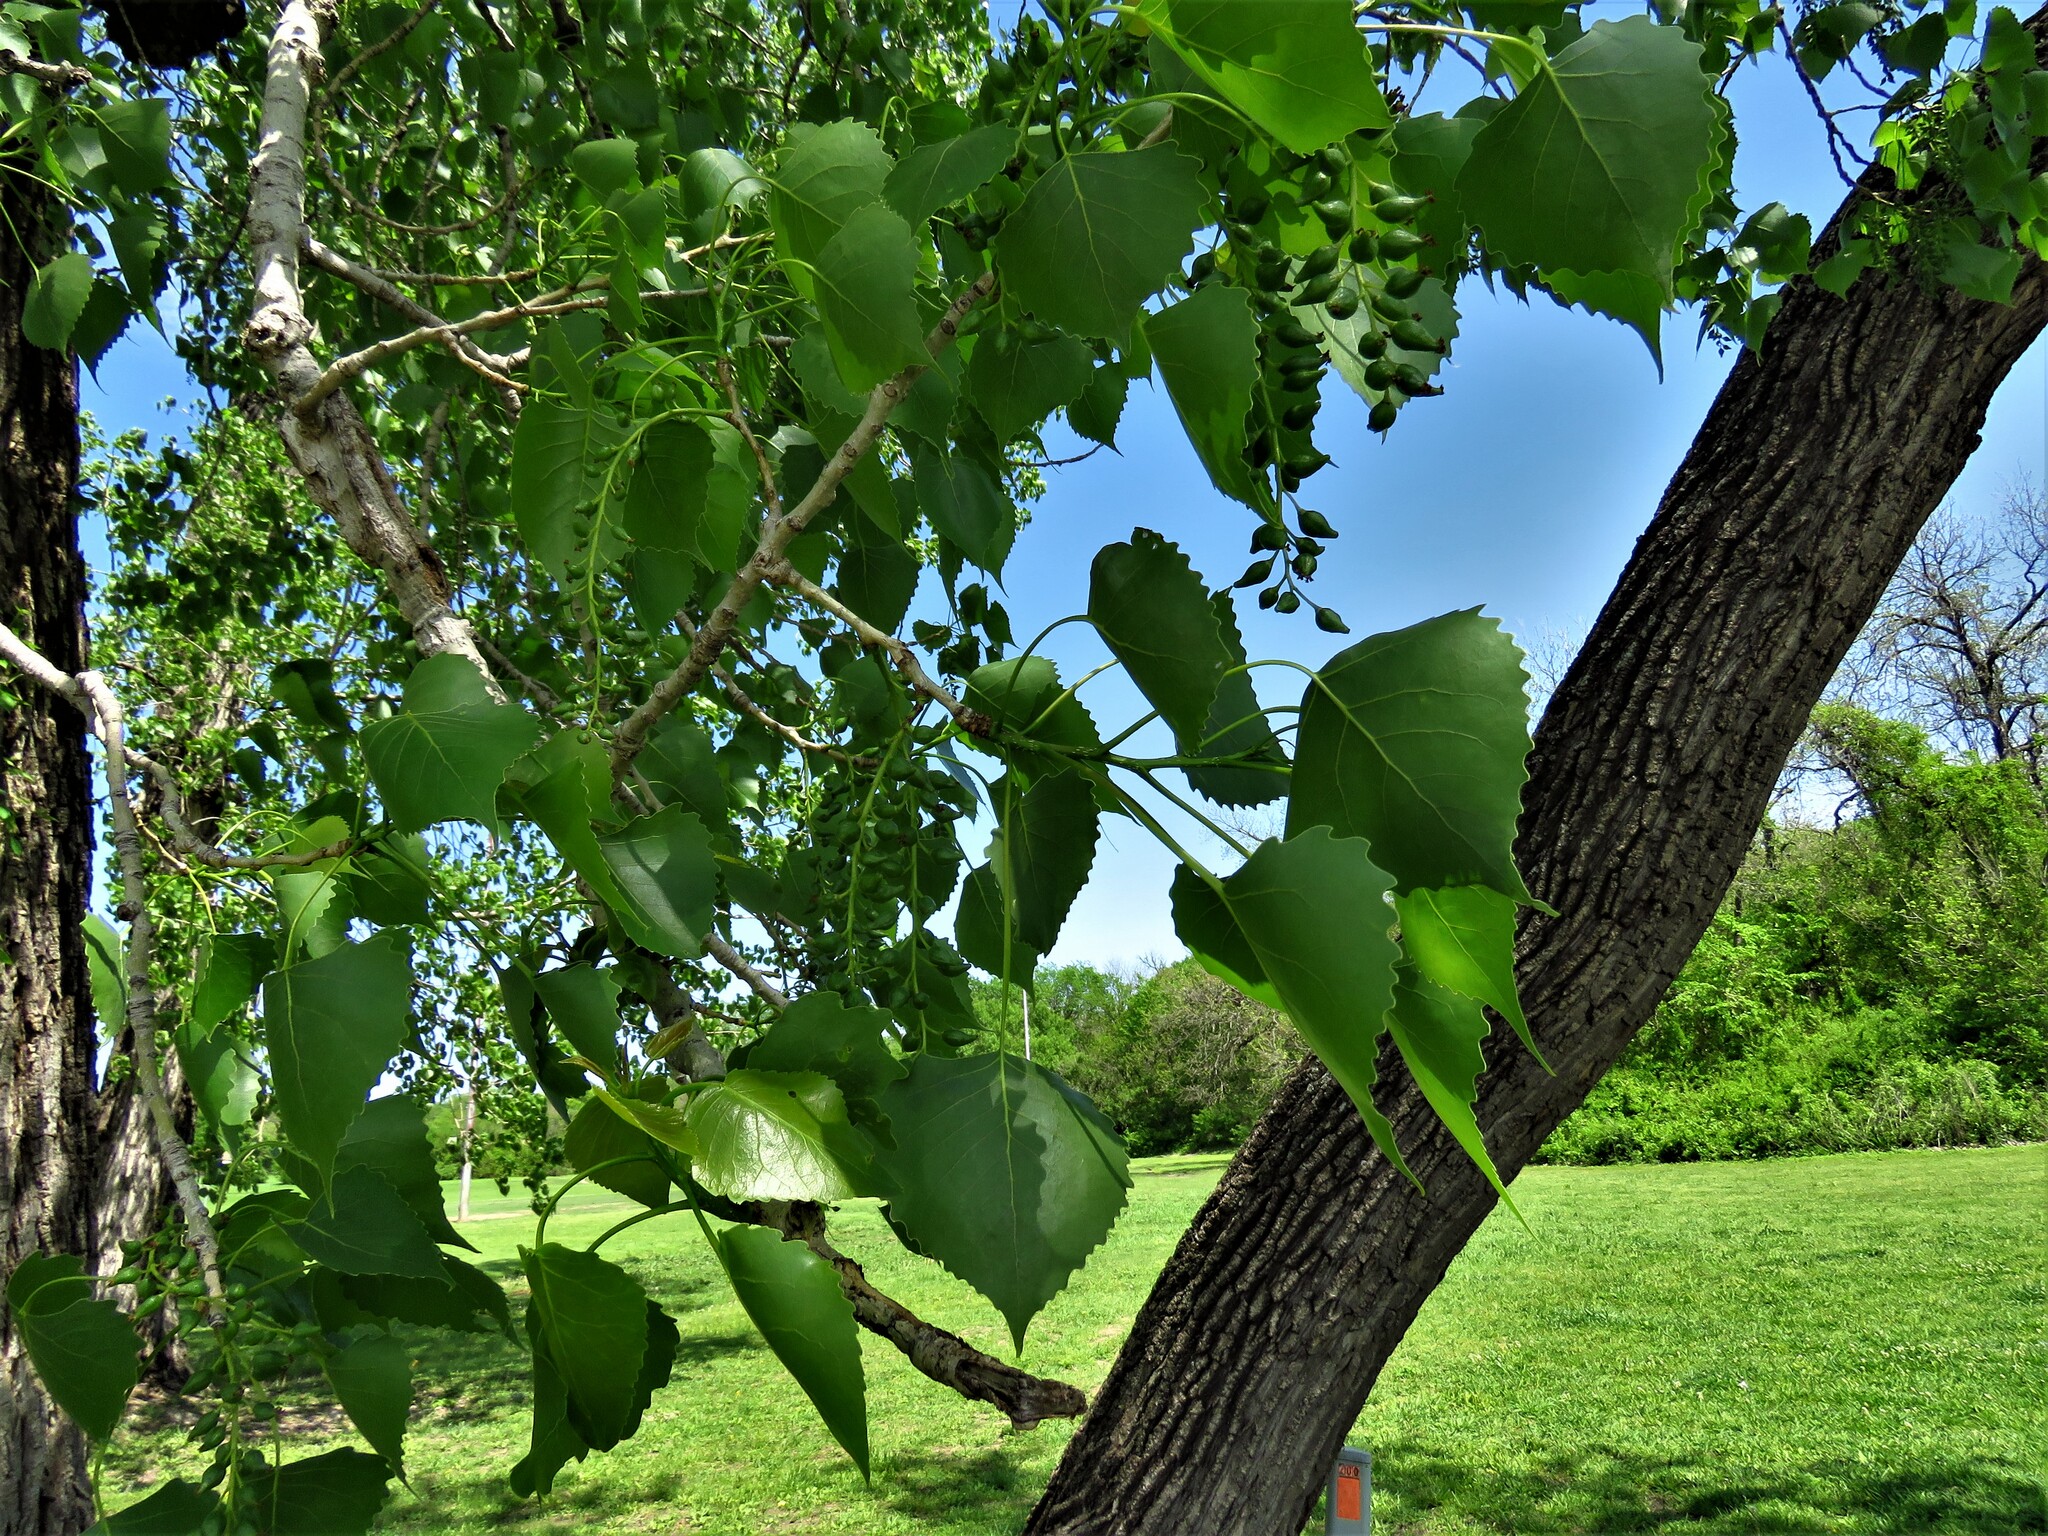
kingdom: Plantae
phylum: Tracheophyta
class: Magnoliopsida
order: Malpighiales
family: Salicaceae
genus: Populus
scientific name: Populus deltoides
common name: Eastern cottonwood
